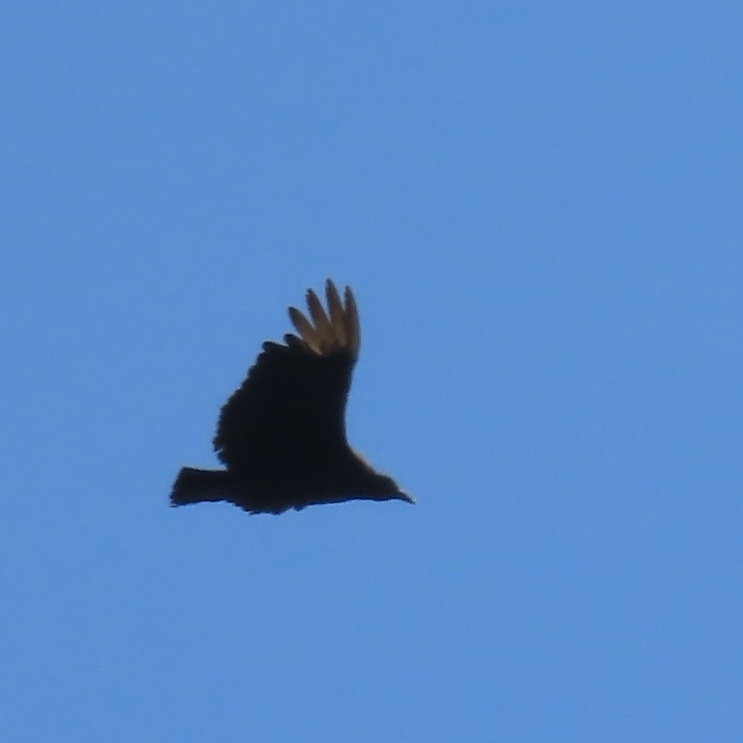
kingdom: Animalia
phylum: Chordata
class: Aves
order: Accipitriformes
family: Cathartidae
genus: Coragyps
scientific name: Coragyps atratus
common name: Black vulture
